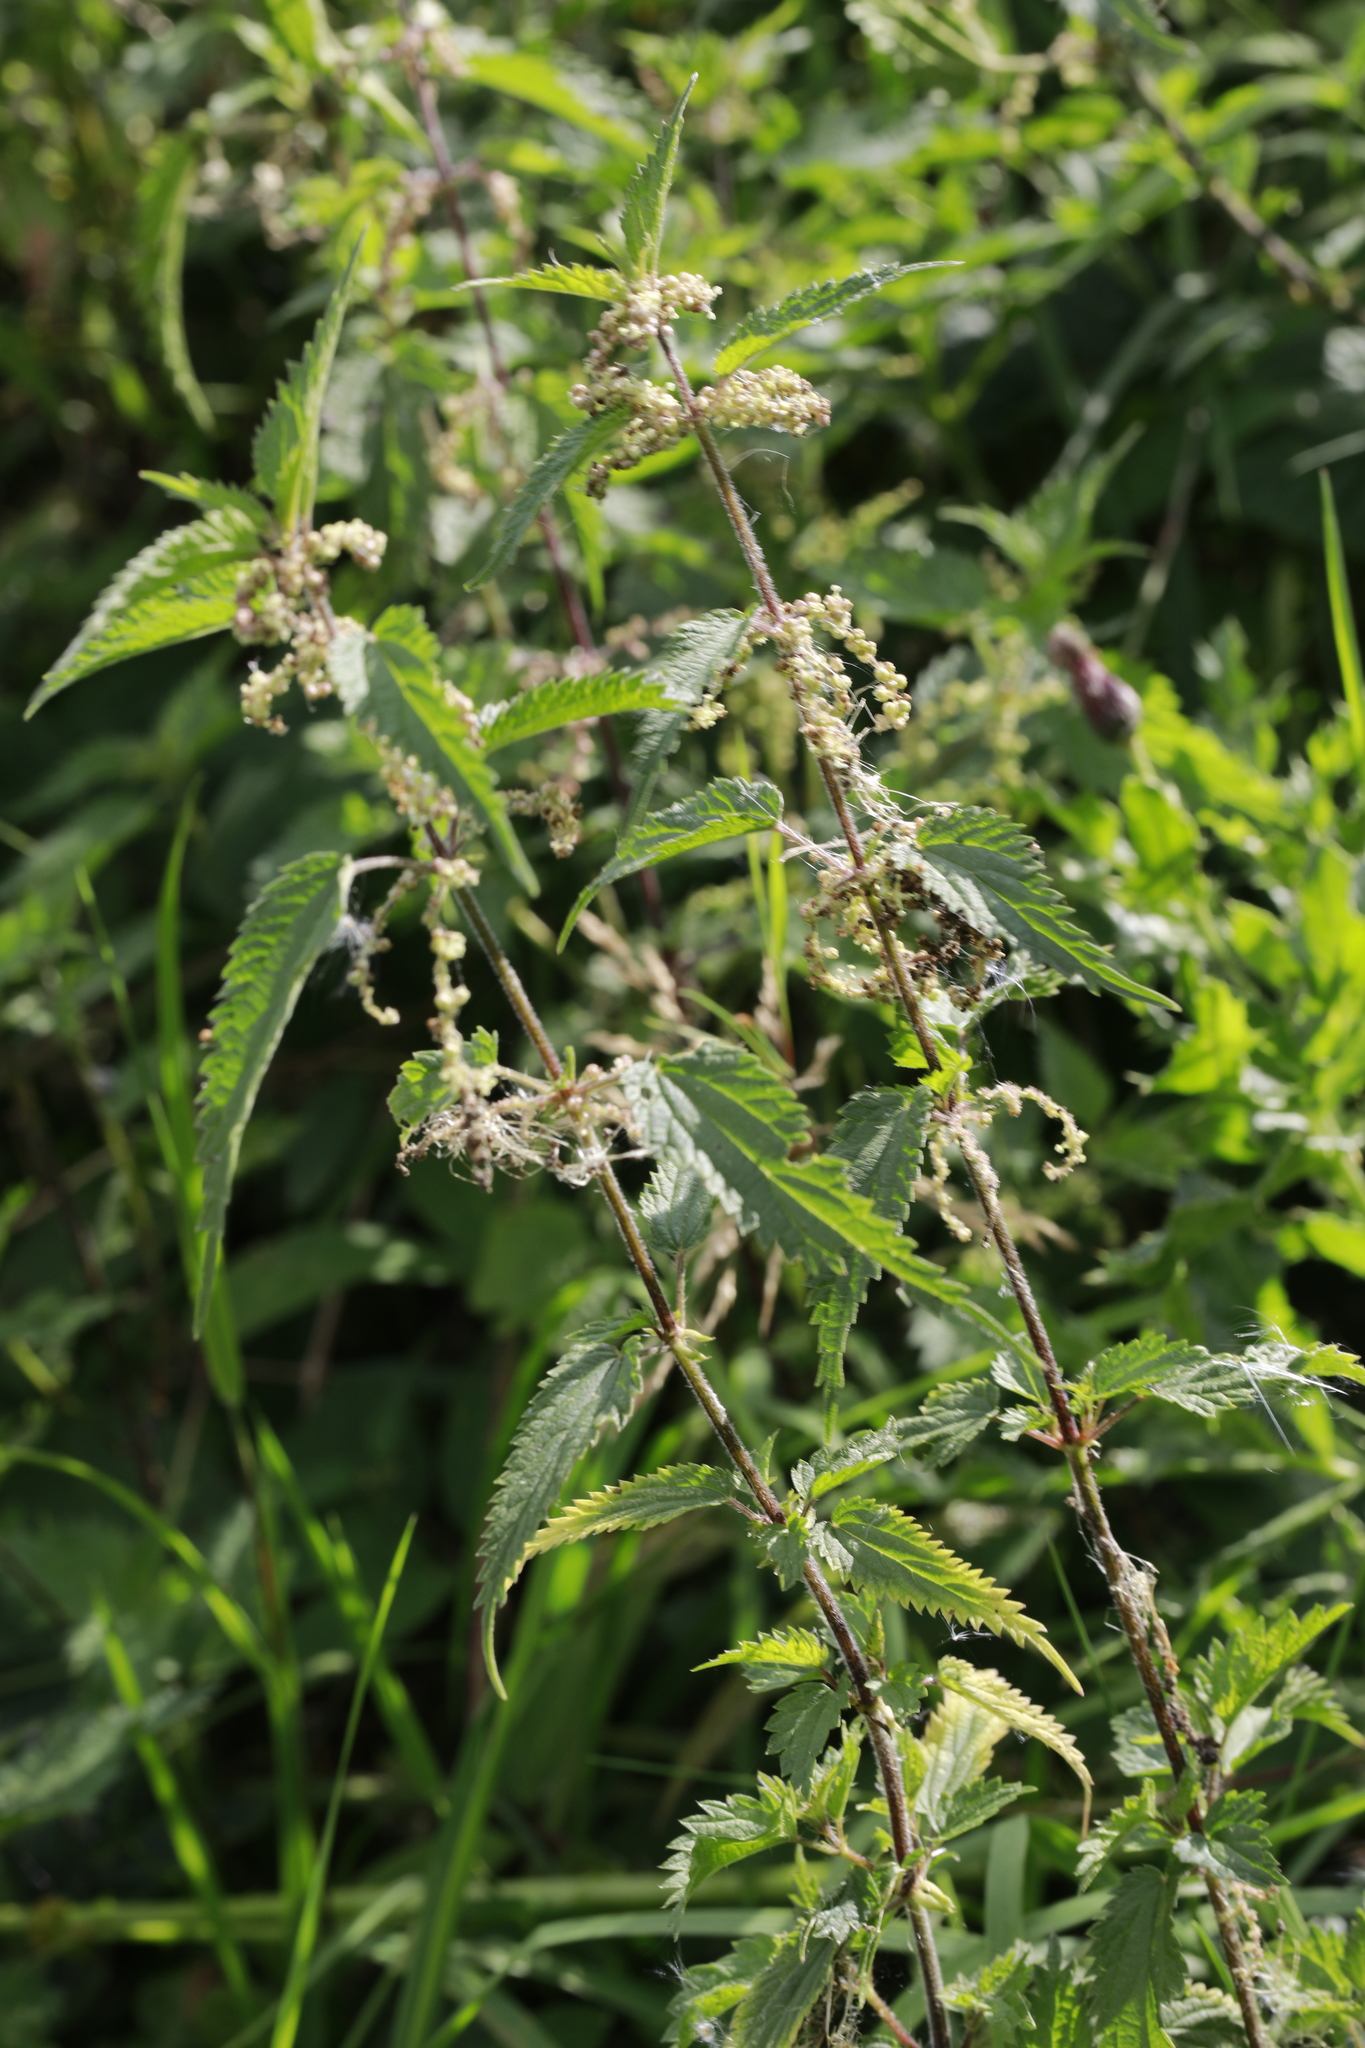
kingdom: Plantae
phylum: Tracheophyta
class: Magnoliopsida
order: Rosales
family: Urticaceae
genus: Urtica
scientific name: Urtica dioica
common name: Common nettle
